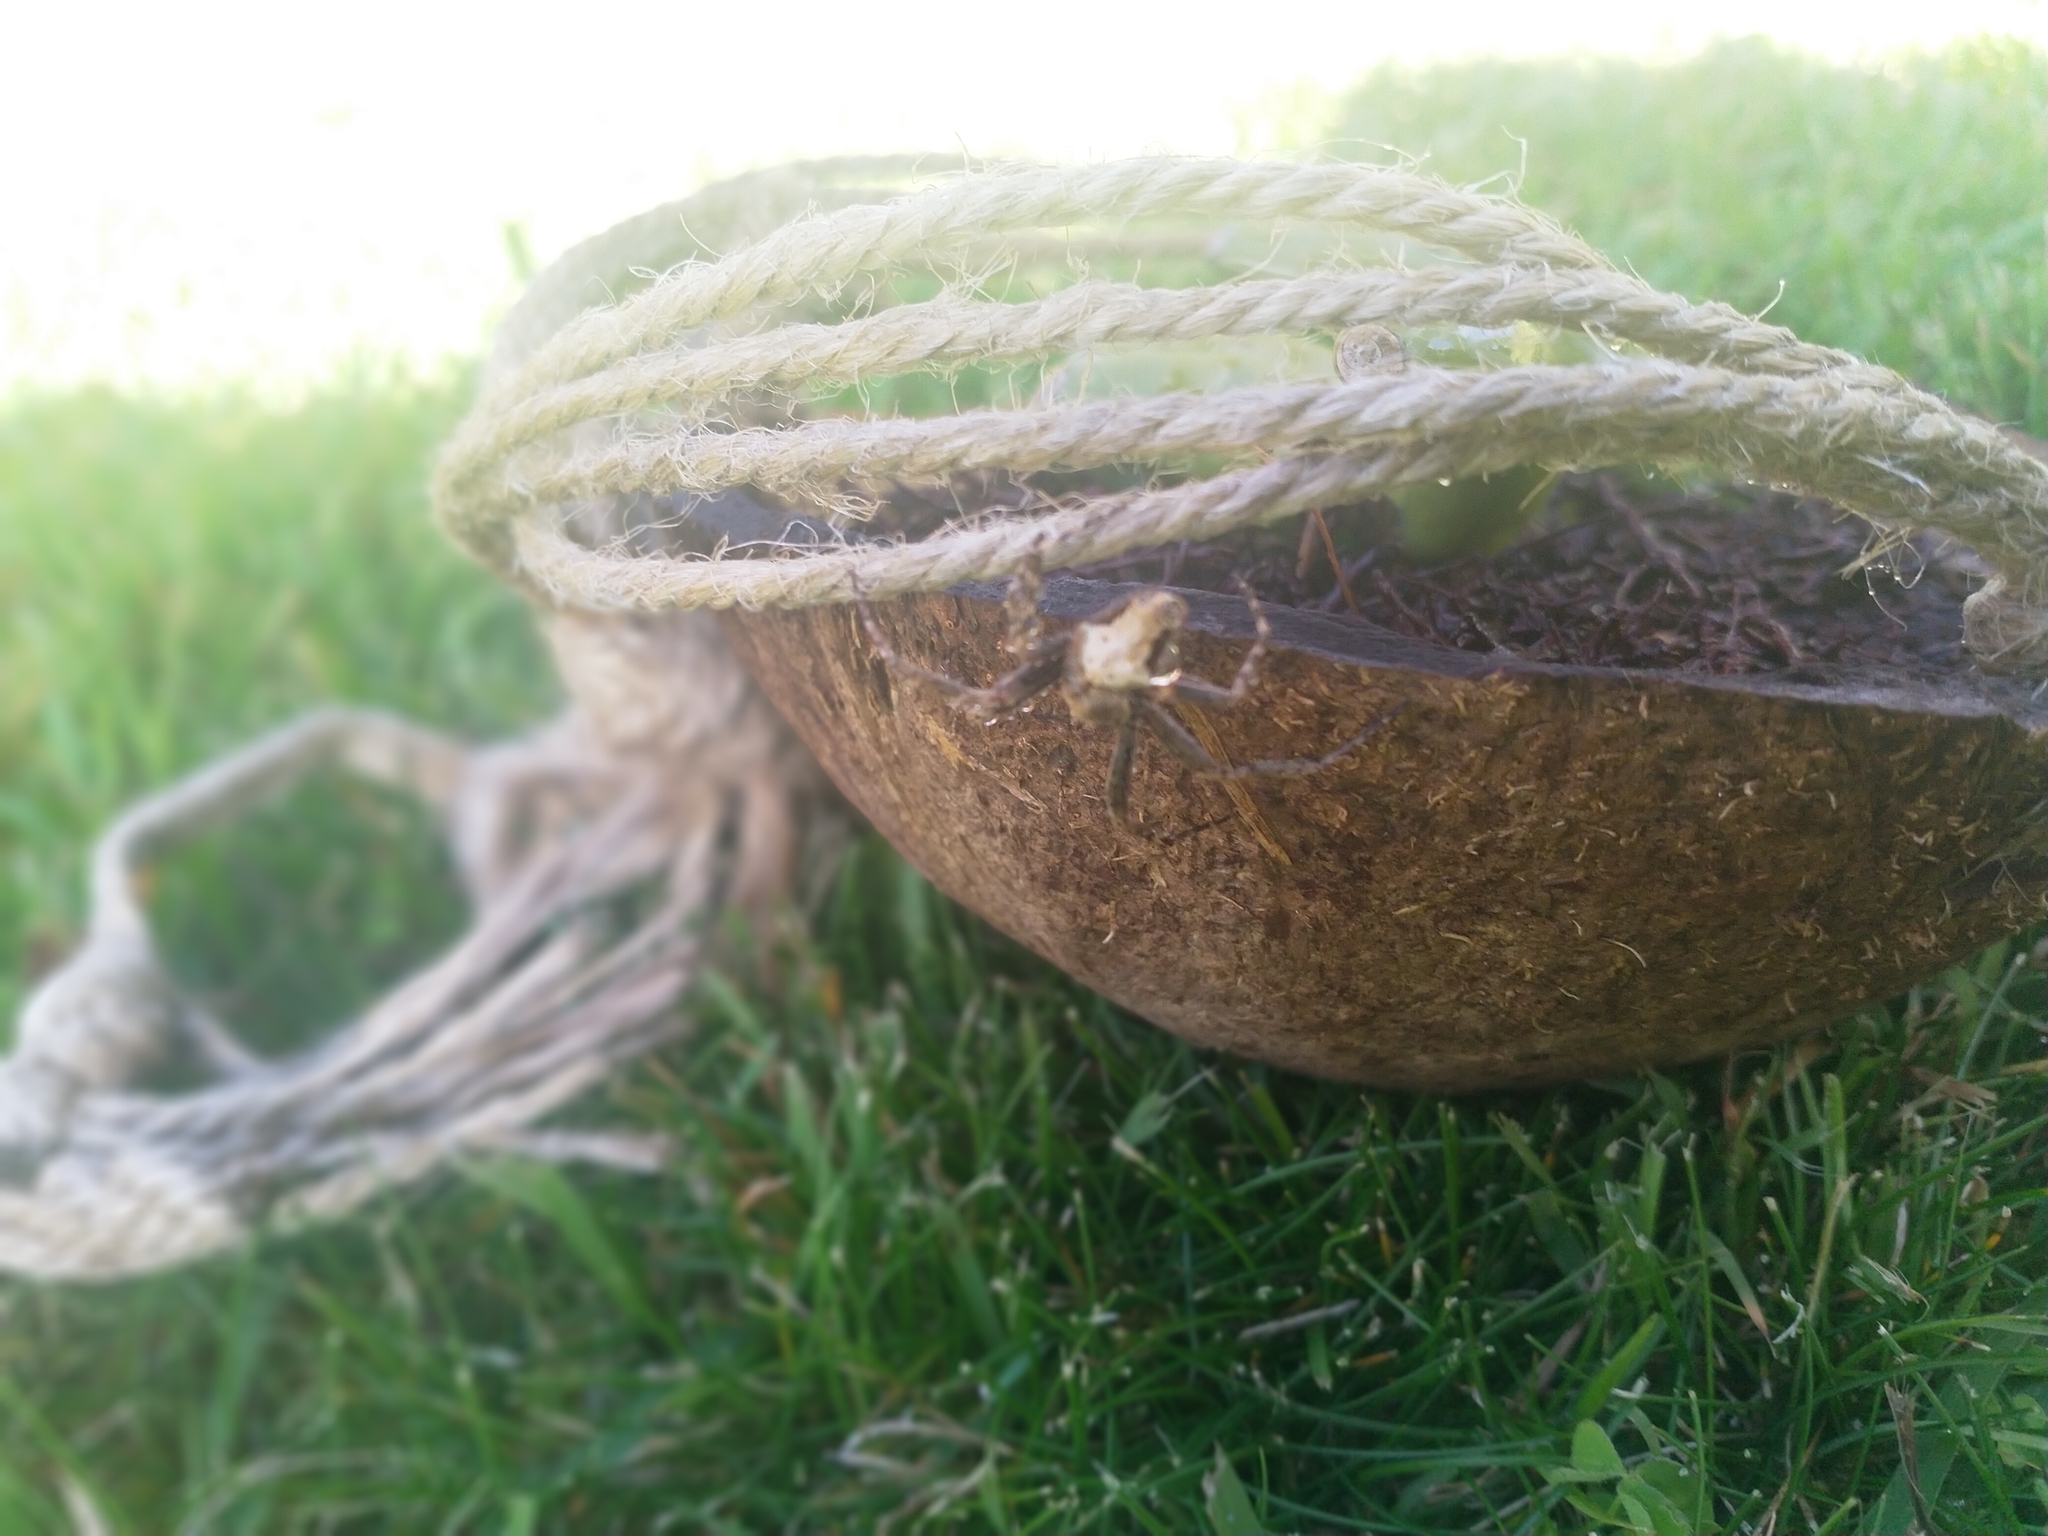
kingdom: Animalia
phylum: Arthropoda
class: Arachnida
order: Araneae
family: Araneidae
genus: Eriophora
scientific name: Eriophora pustulosa
